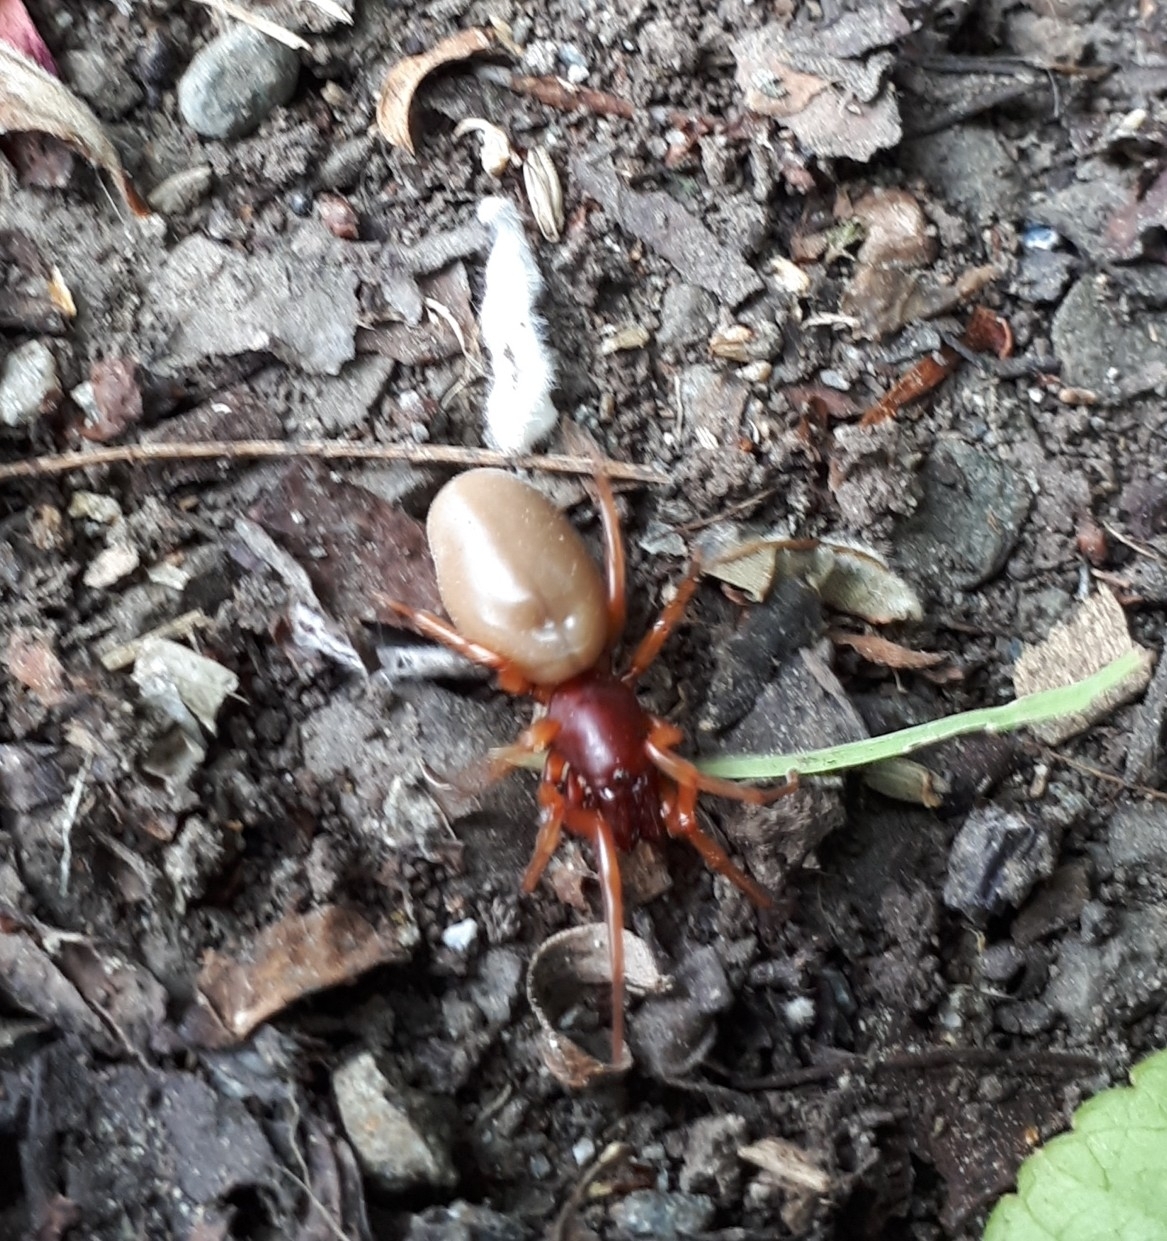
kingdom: Animalia
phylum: Arthropoda
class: Arachnida
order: Araneae
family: Dysderidae
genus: Dysdera
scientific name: Dysdera crocata
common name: Woodlouse spider
